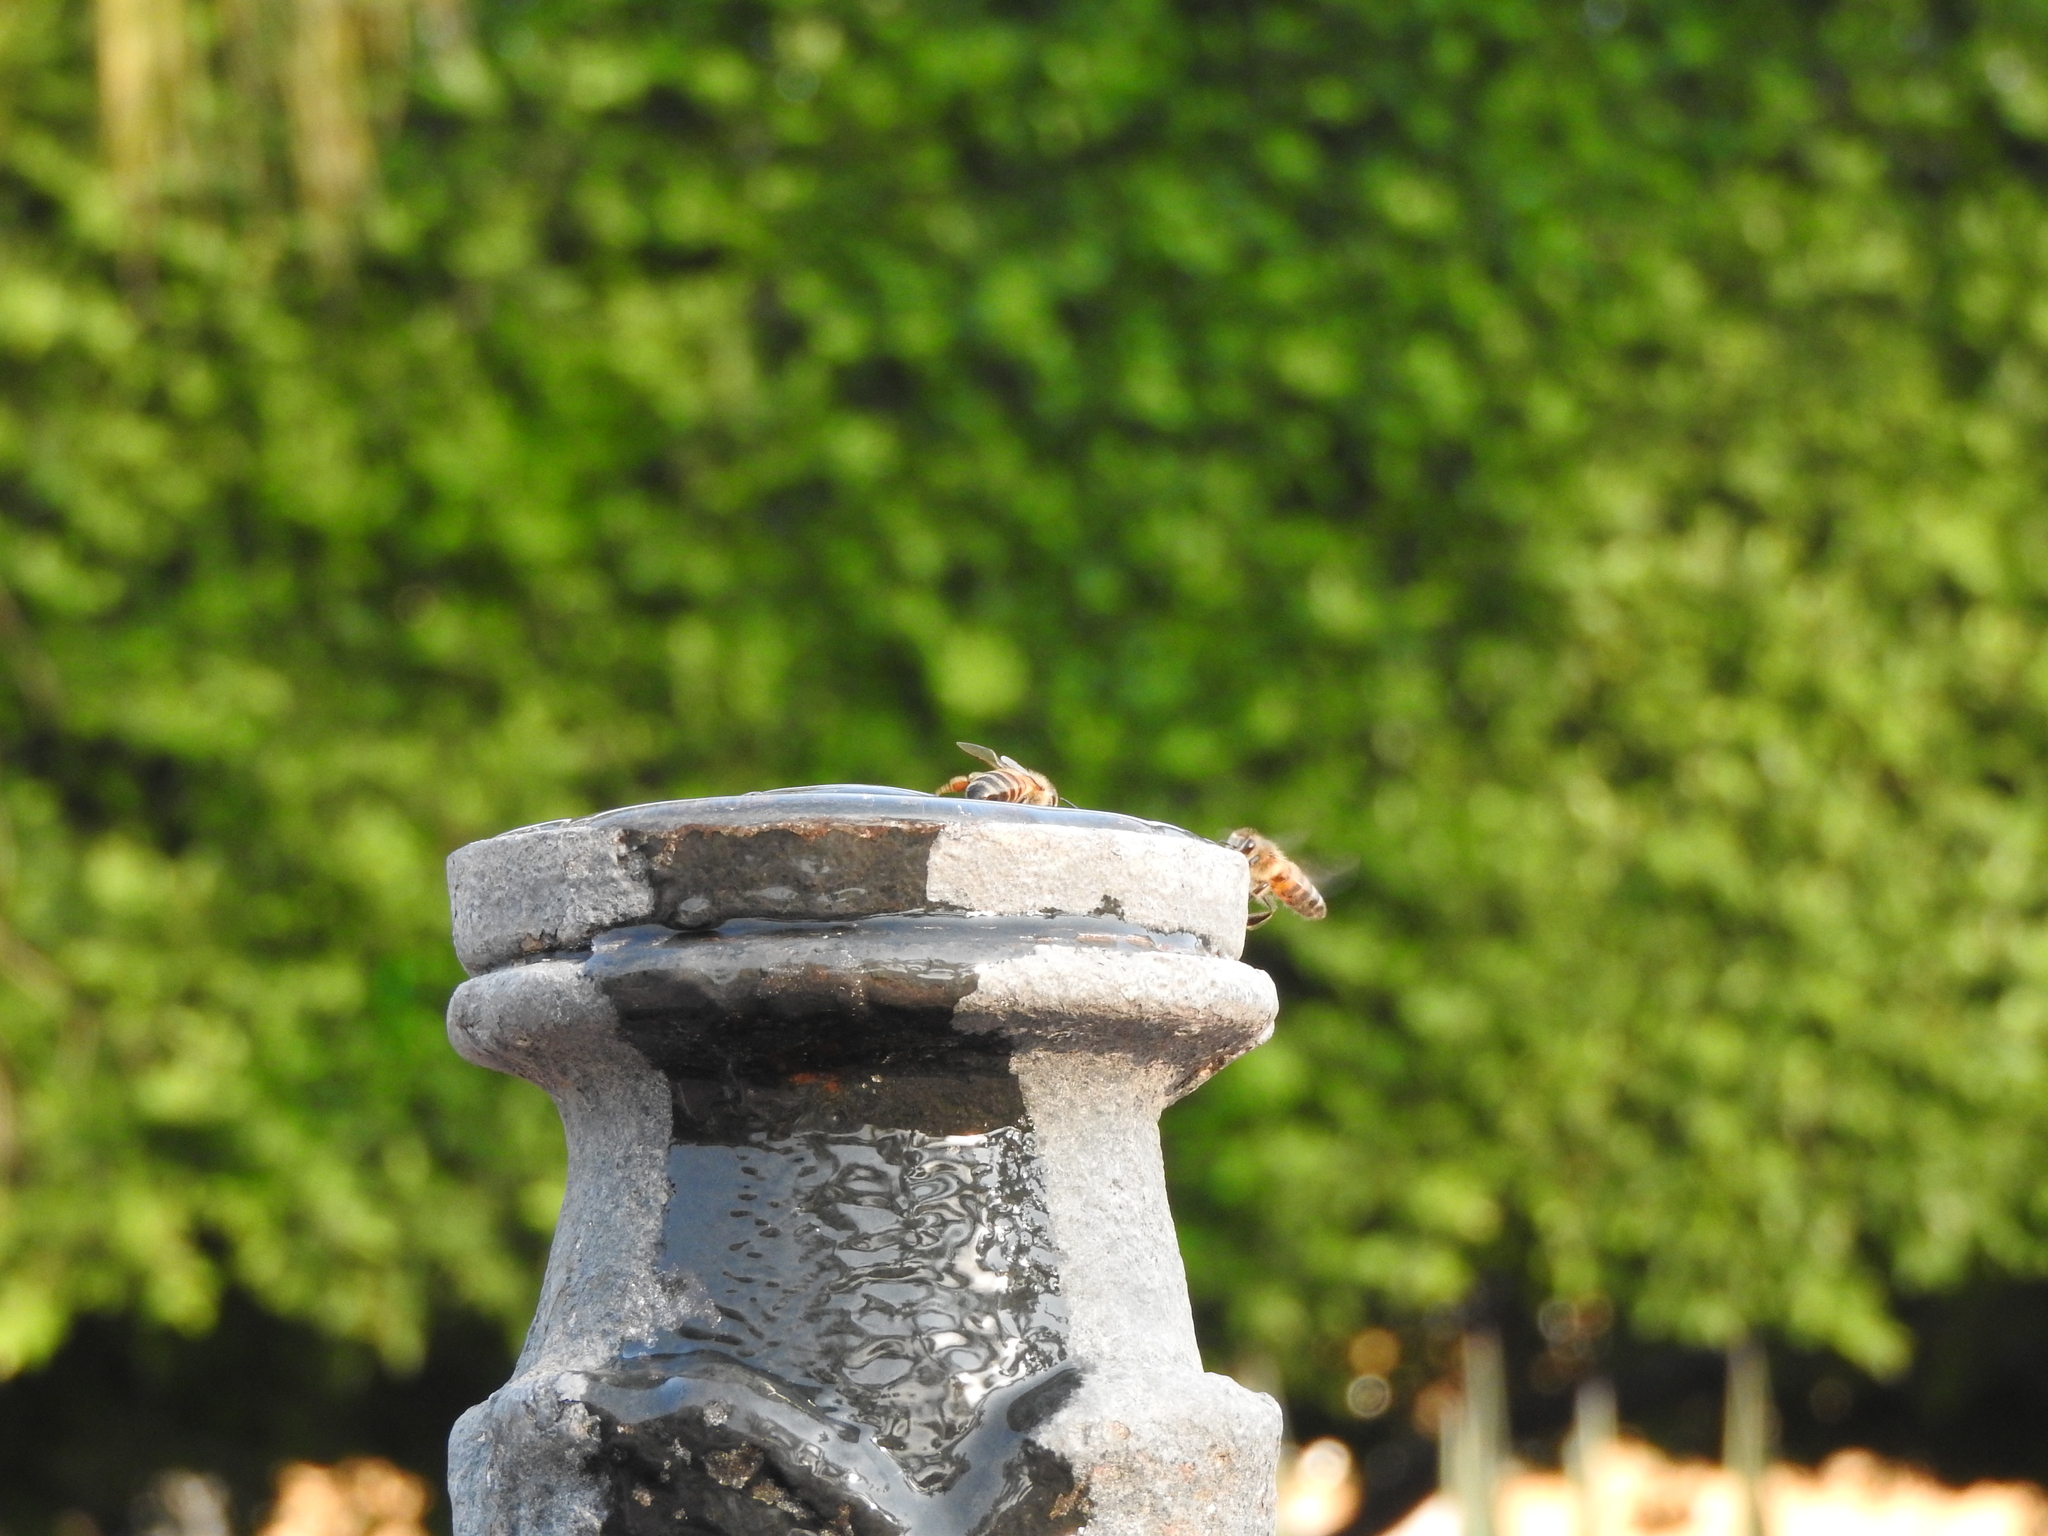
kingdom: Animalia
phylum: Arthropoda
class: Insecta
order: Hymenoptera
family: Apidae
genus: Apis
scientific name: Apis mellifera
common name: Honey bee
